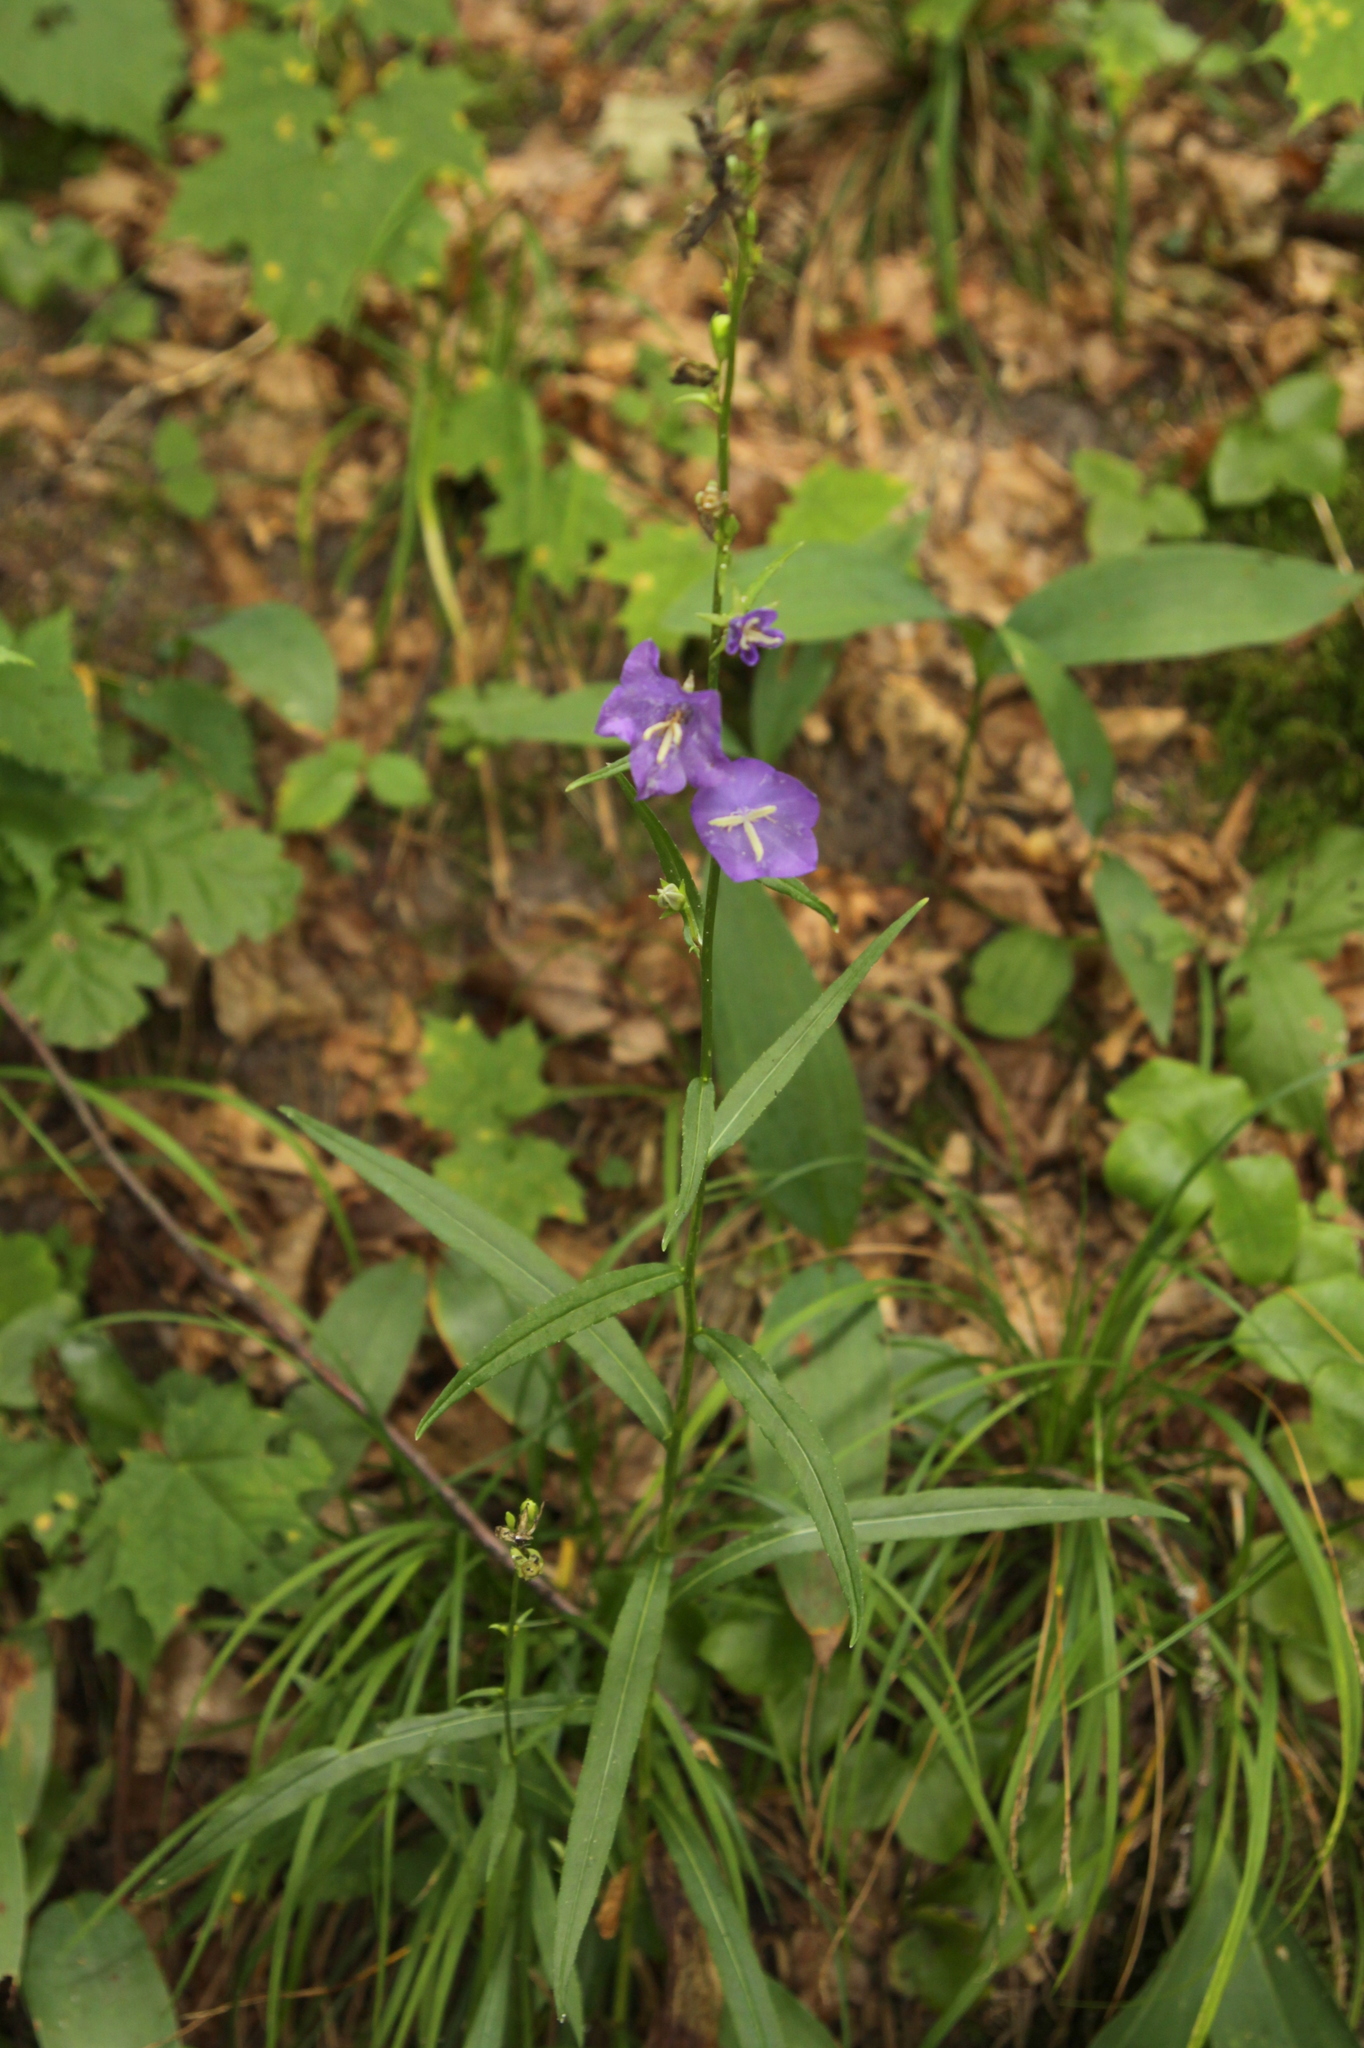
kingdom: Plantae
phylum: Tracheophyta
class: Magnoliopsida
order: Asterales
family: Campanulaceae
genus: Campanula
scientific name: Campanula persicifolia
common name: Peach-leaved bellflower
